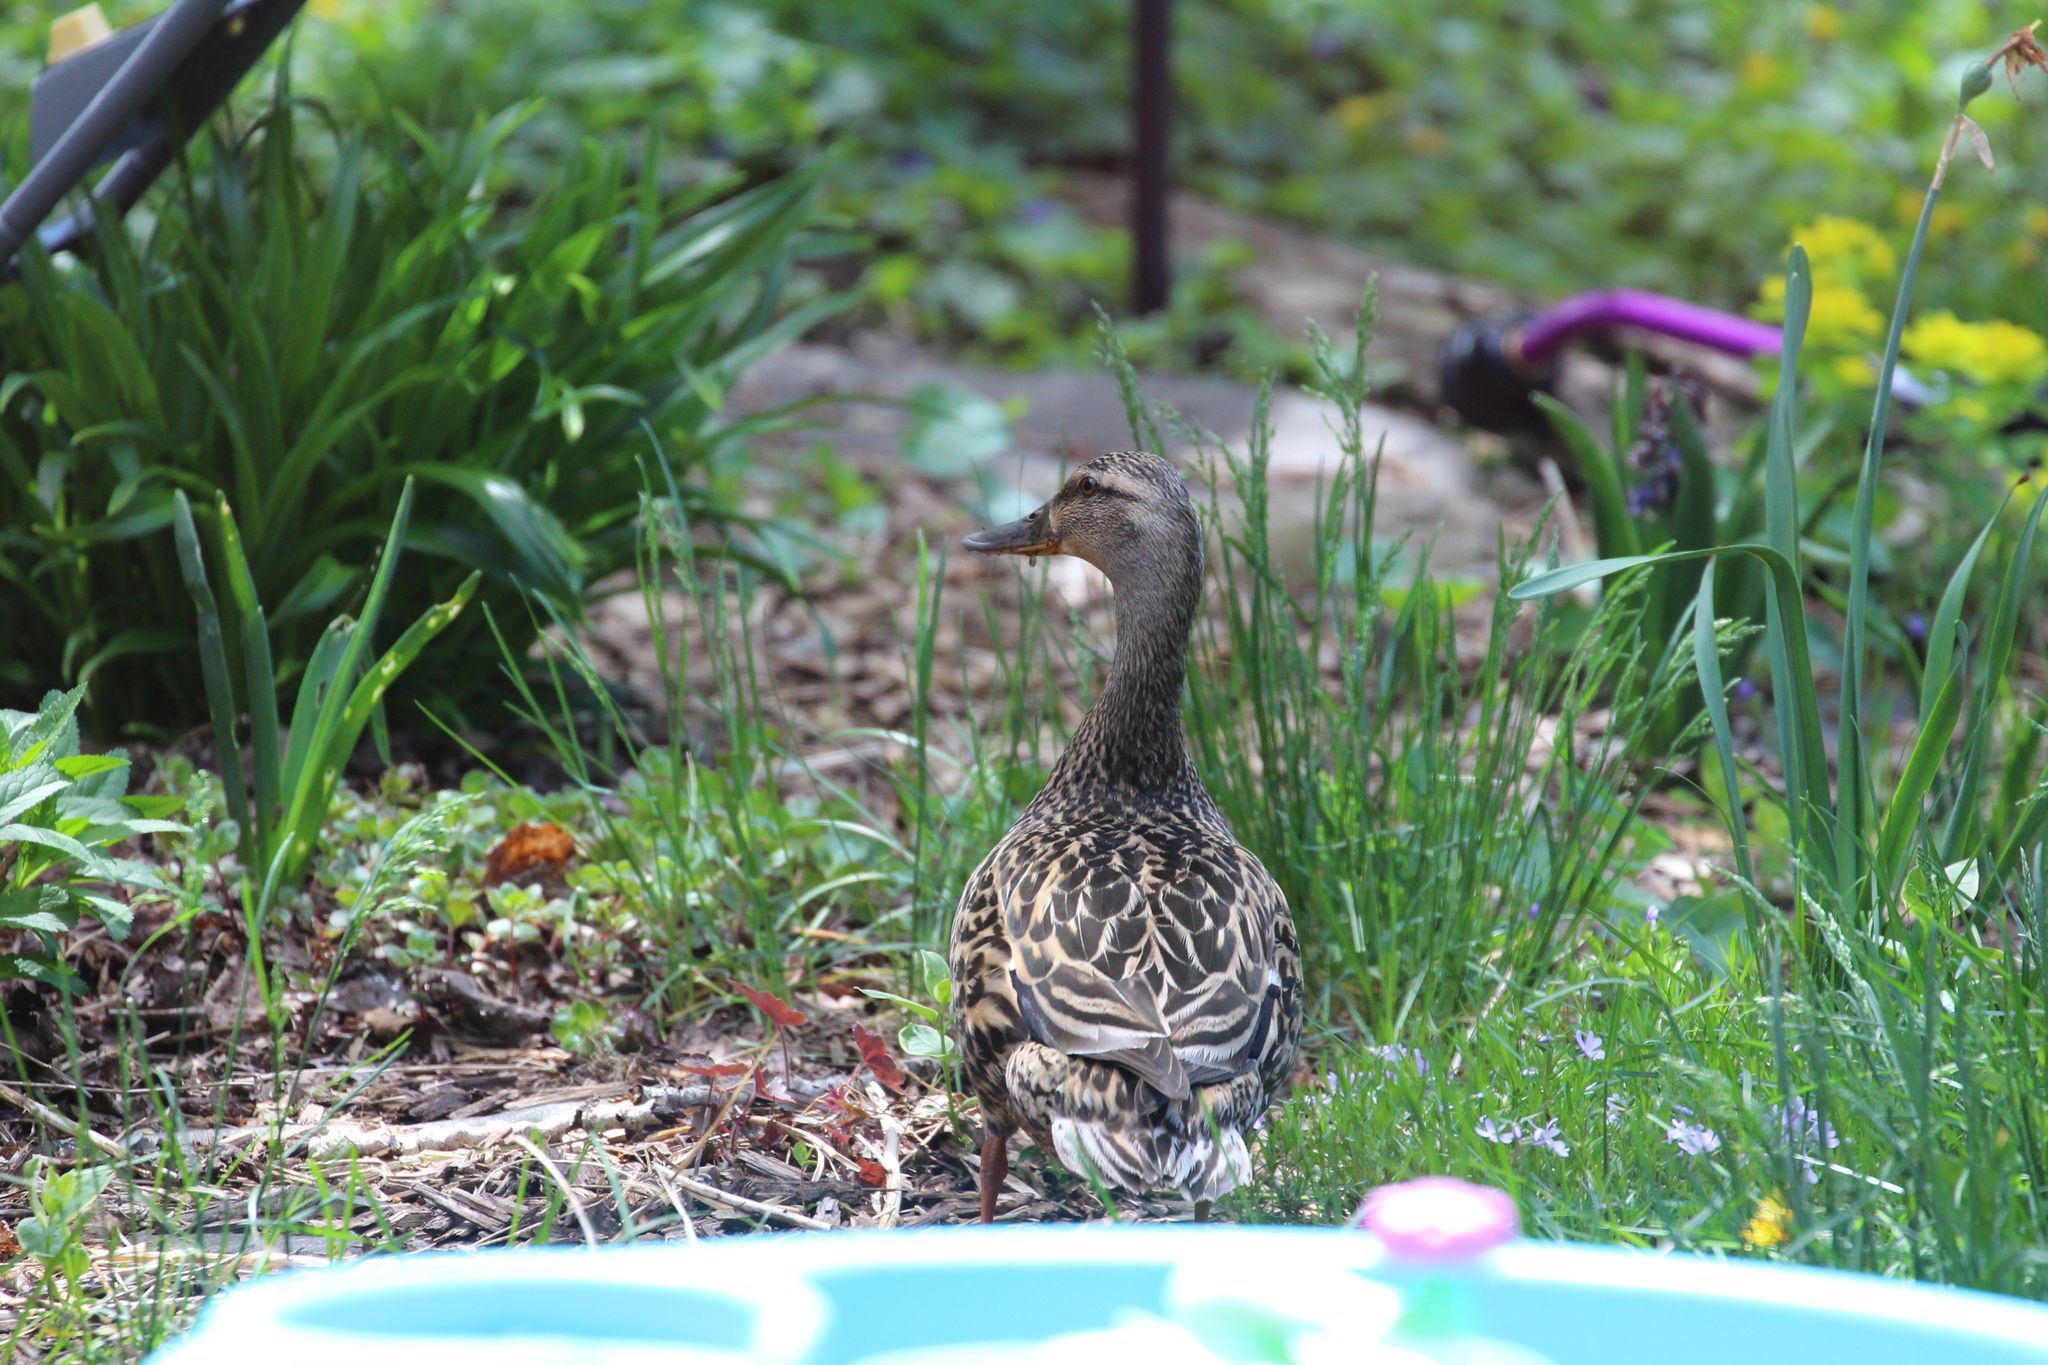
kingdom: Animalia
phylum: Chordata
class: Aves
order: Anseriformes
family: Anatidae
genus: Anas
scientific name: Anas platyrhynchos
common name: Mallard
